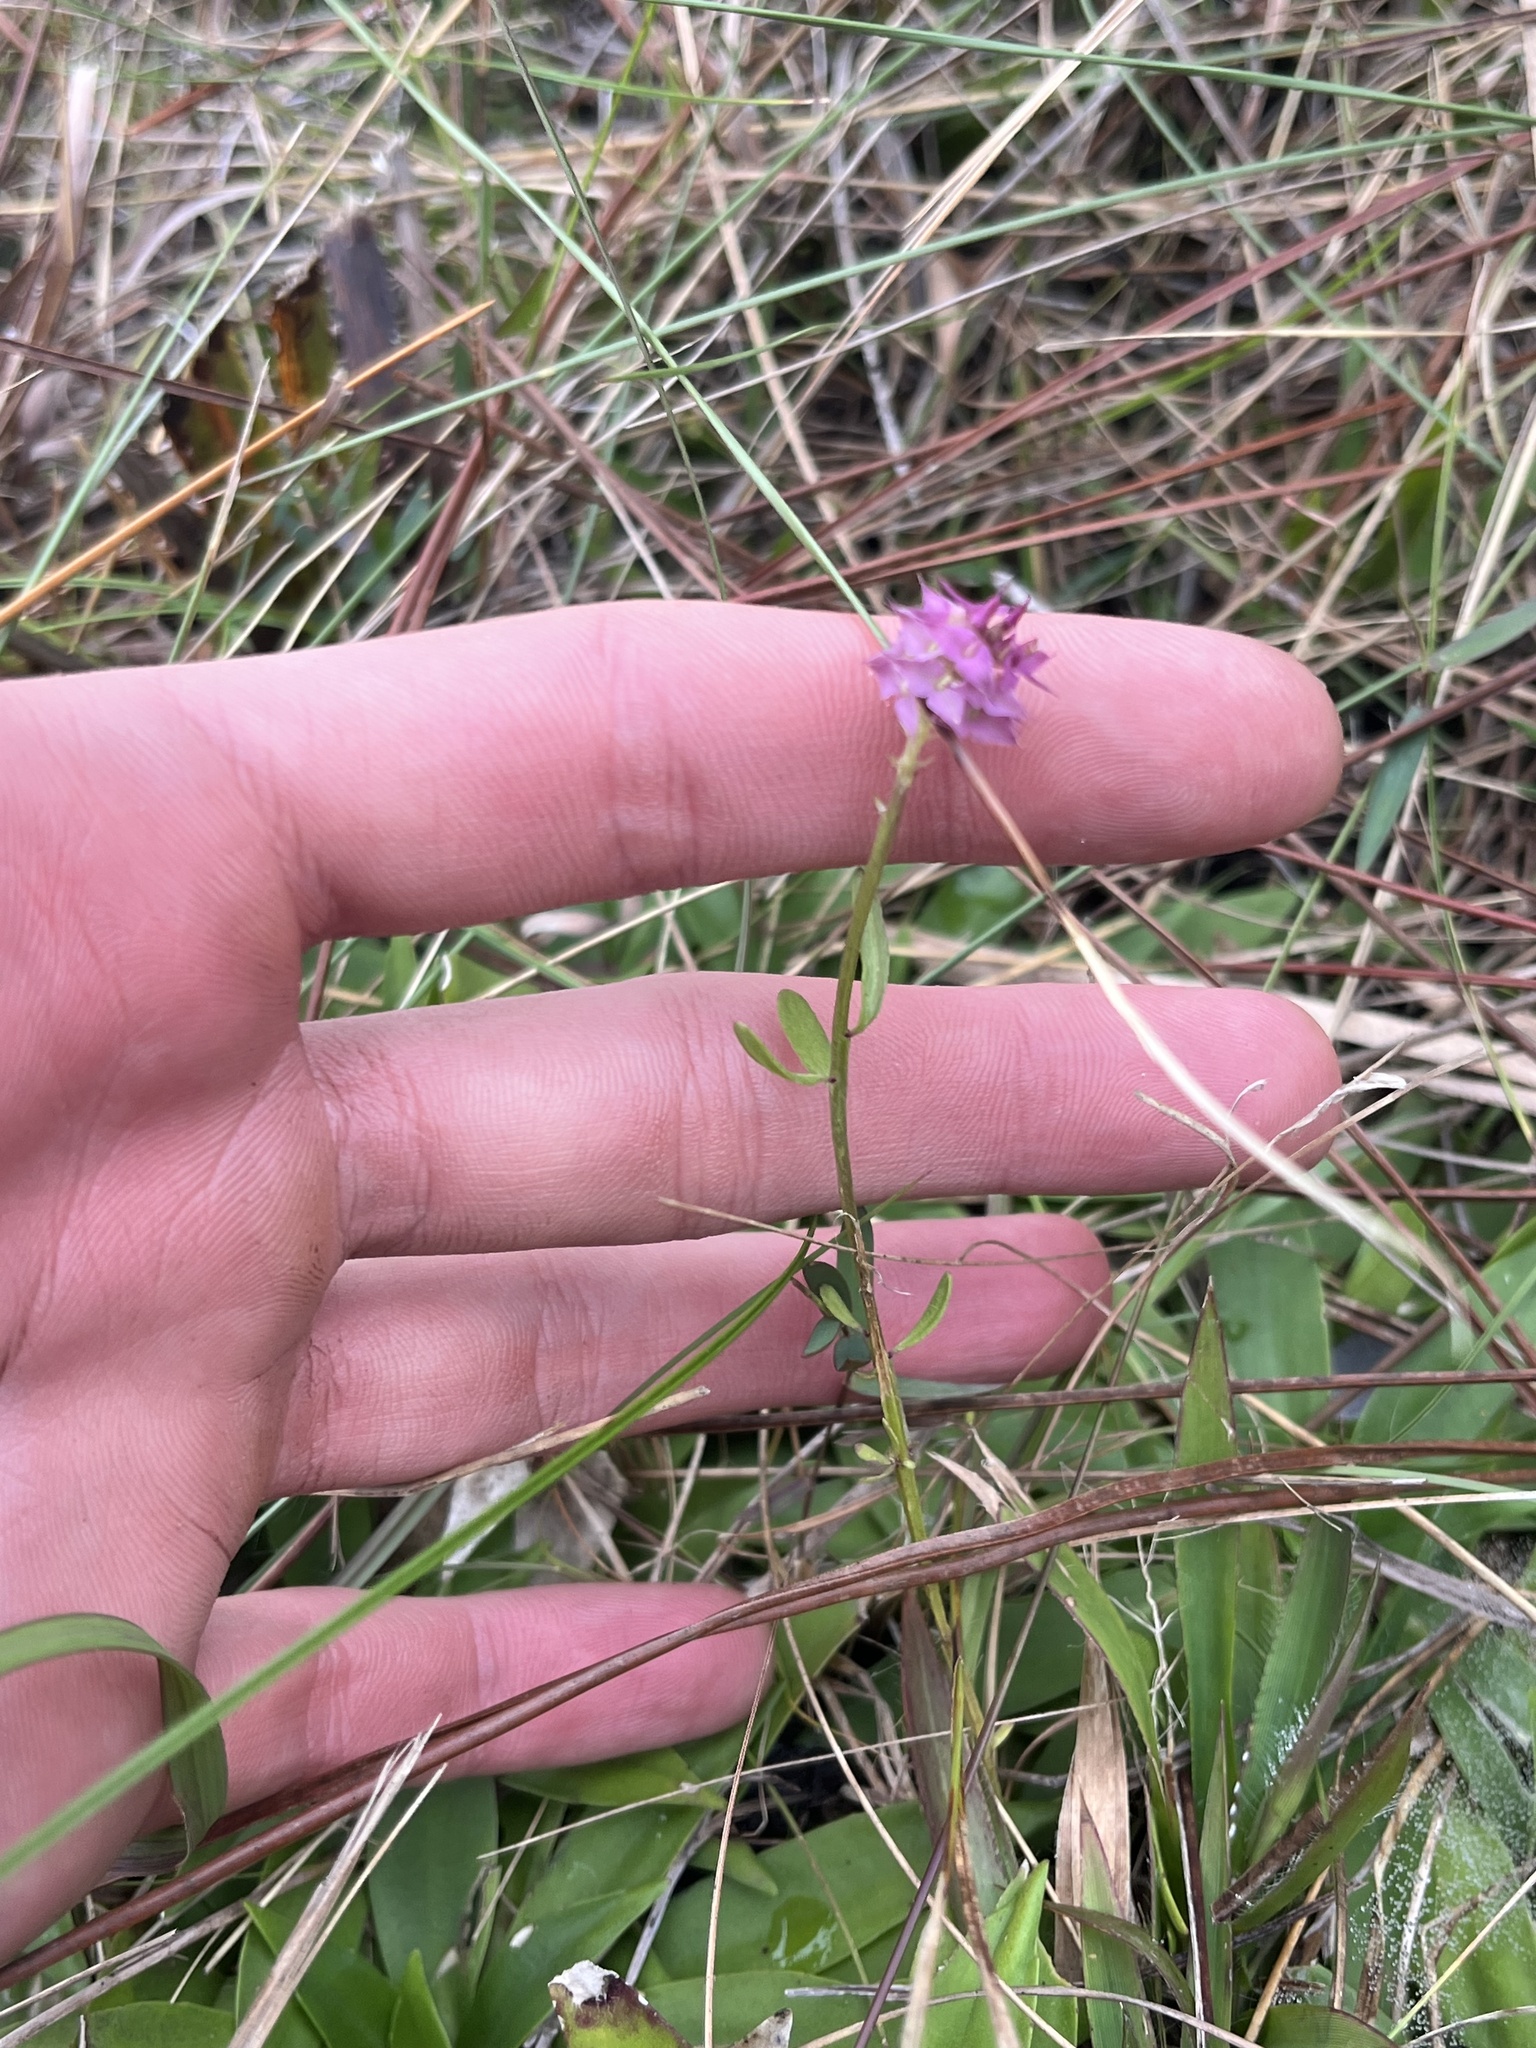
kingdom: Plantae
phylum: Tracheophyta
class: Magnoliopsida
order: Fabales
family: Polygalaceae
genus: Polygala
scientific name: Polygala cruciata
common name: Drumheads
